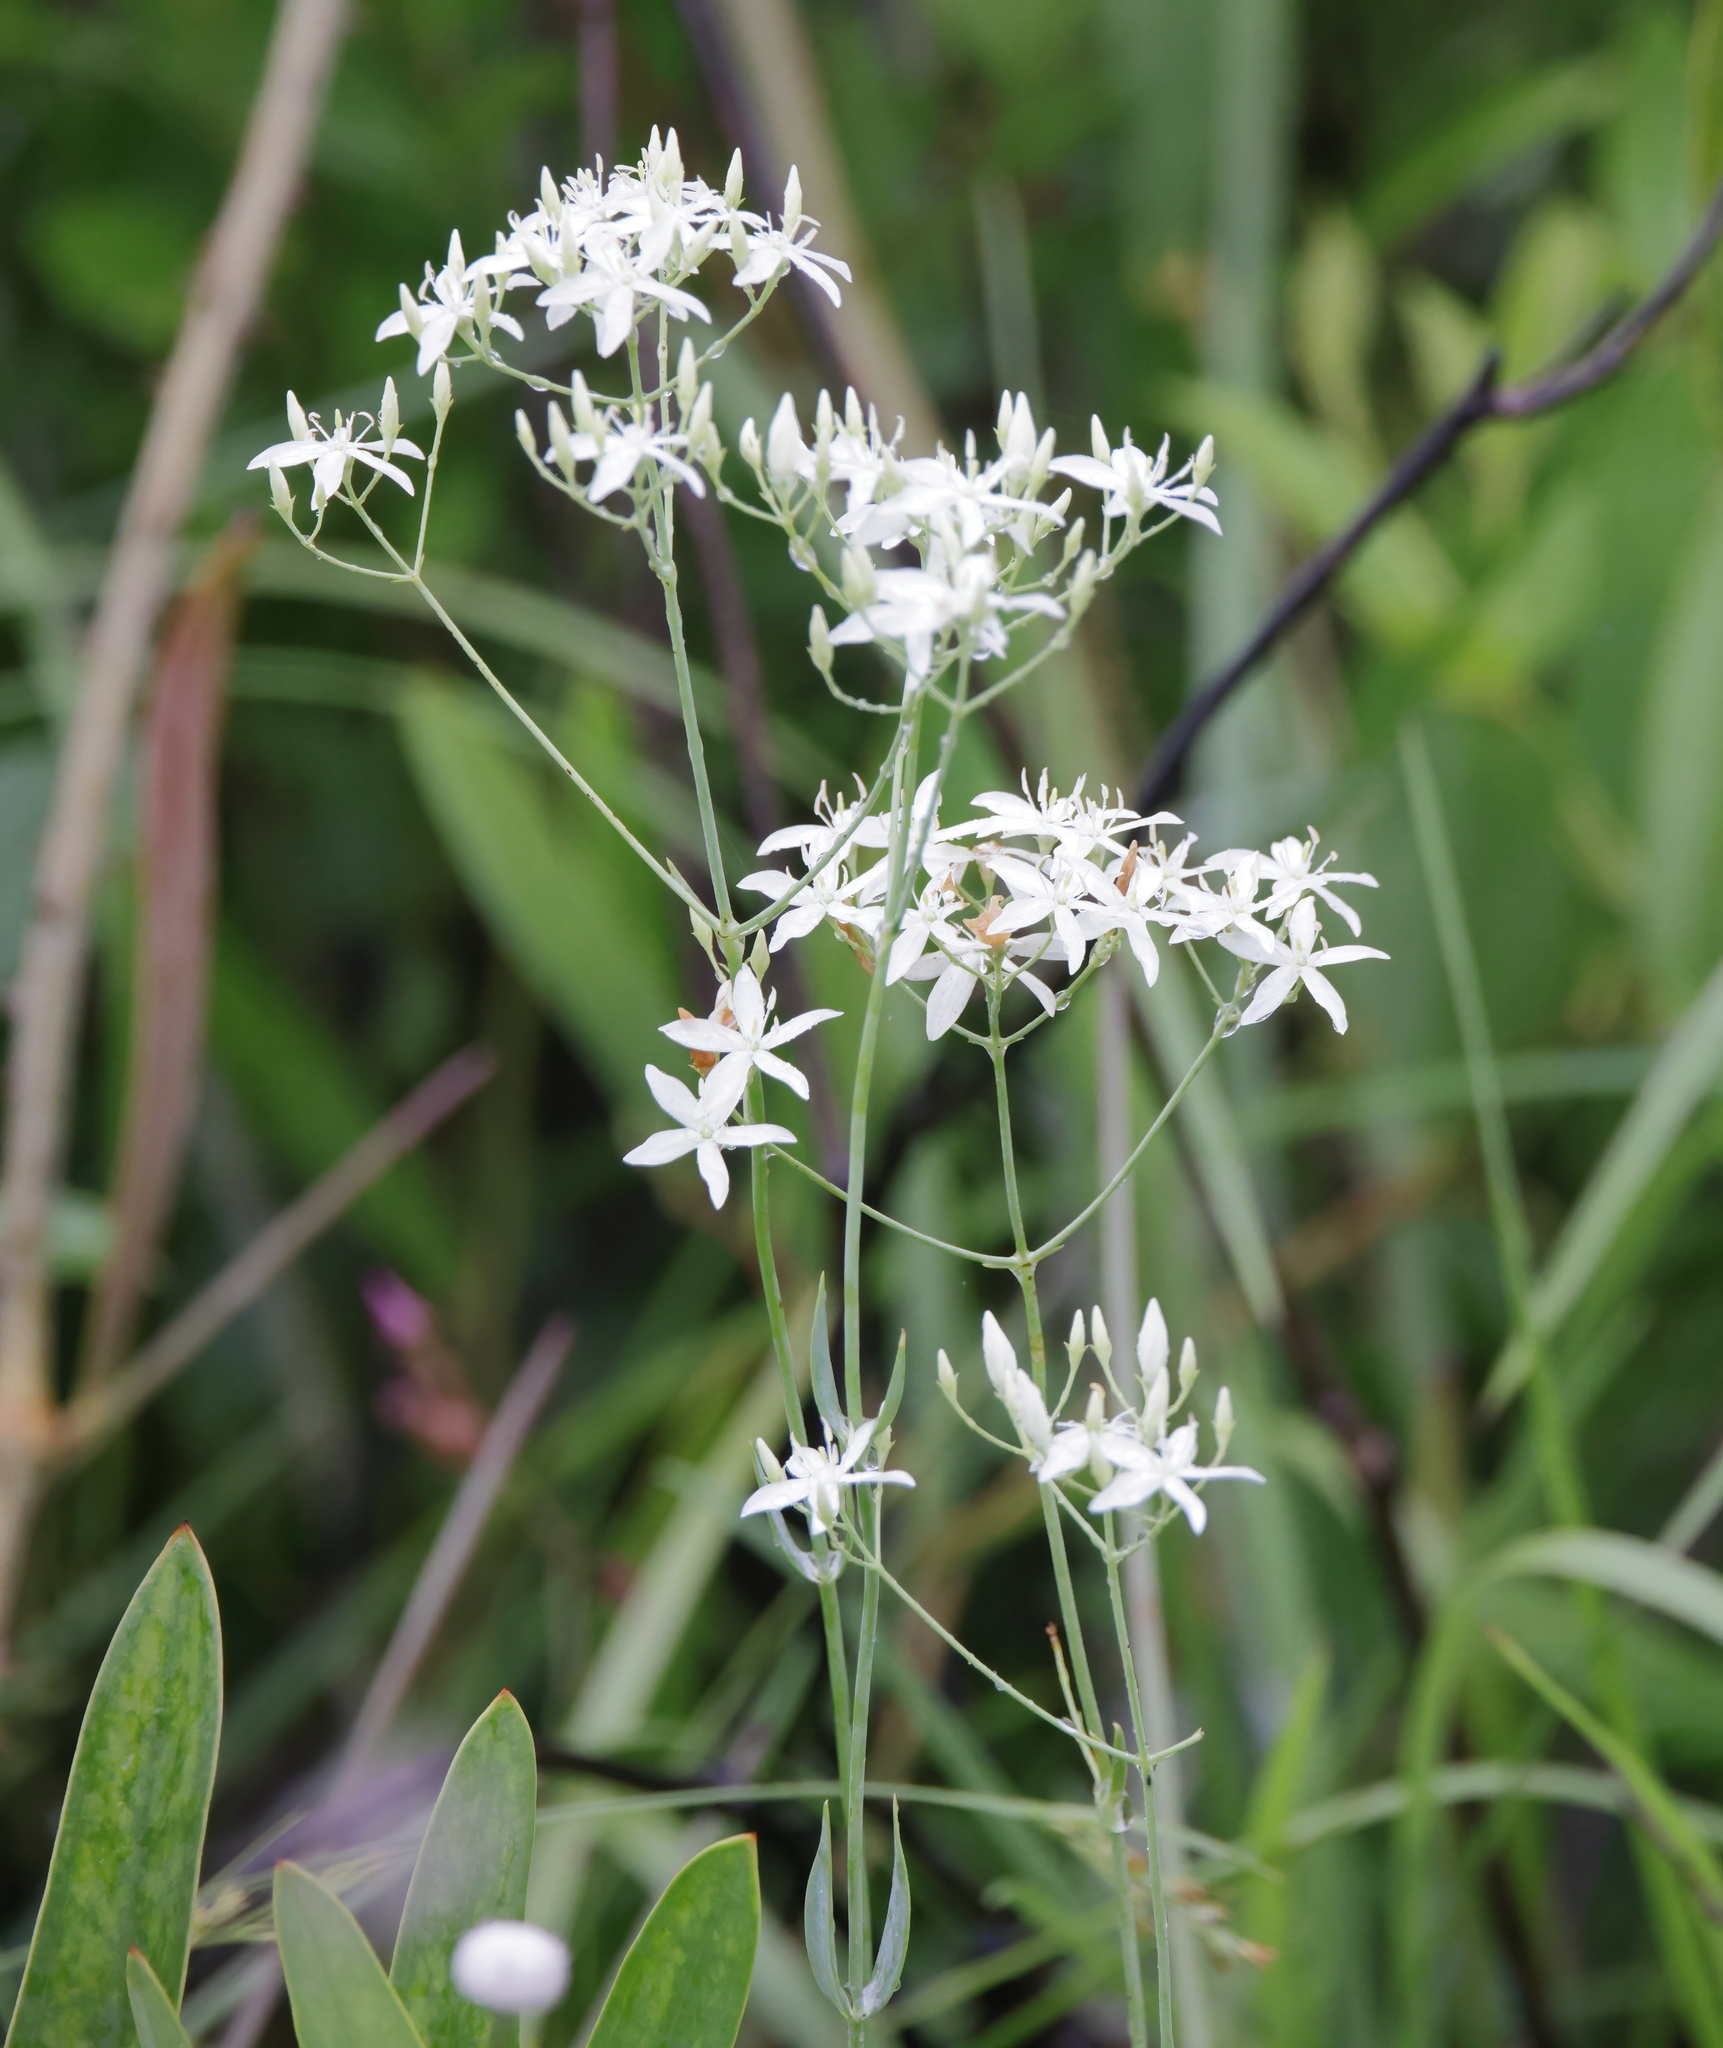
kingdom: Plantae
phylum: Tracheophyta
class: Magnoliopsida
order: Gentianales
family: Gentianaceae
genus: Sabatia
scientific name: Sabatia macrophylla
